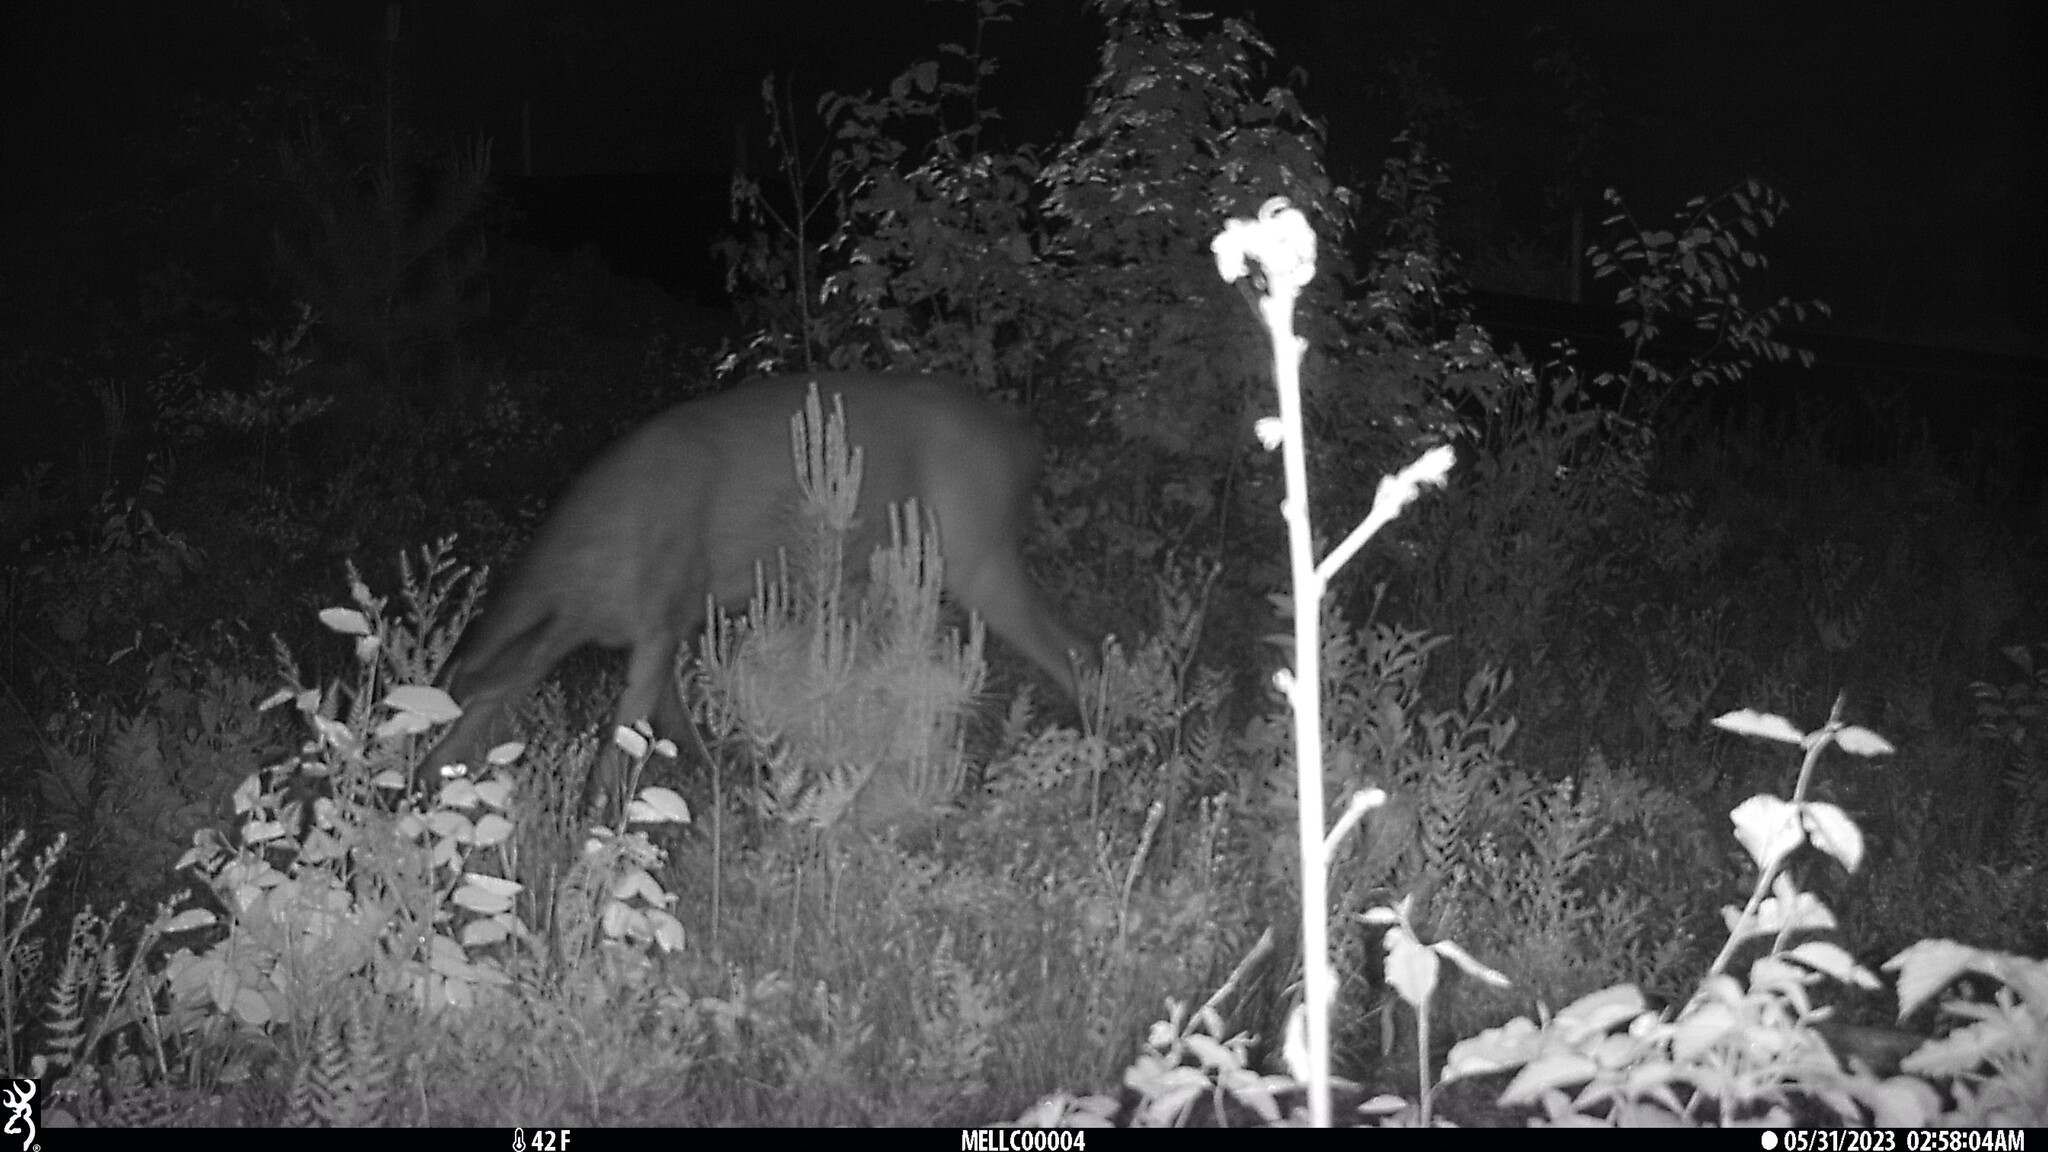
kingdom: Animalia
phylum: Chordata
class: Mammalia
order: Artiodactyla
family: Cervidae
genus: Odocoileus
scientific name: Odocoileus virginianus
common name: White-tailed deer
